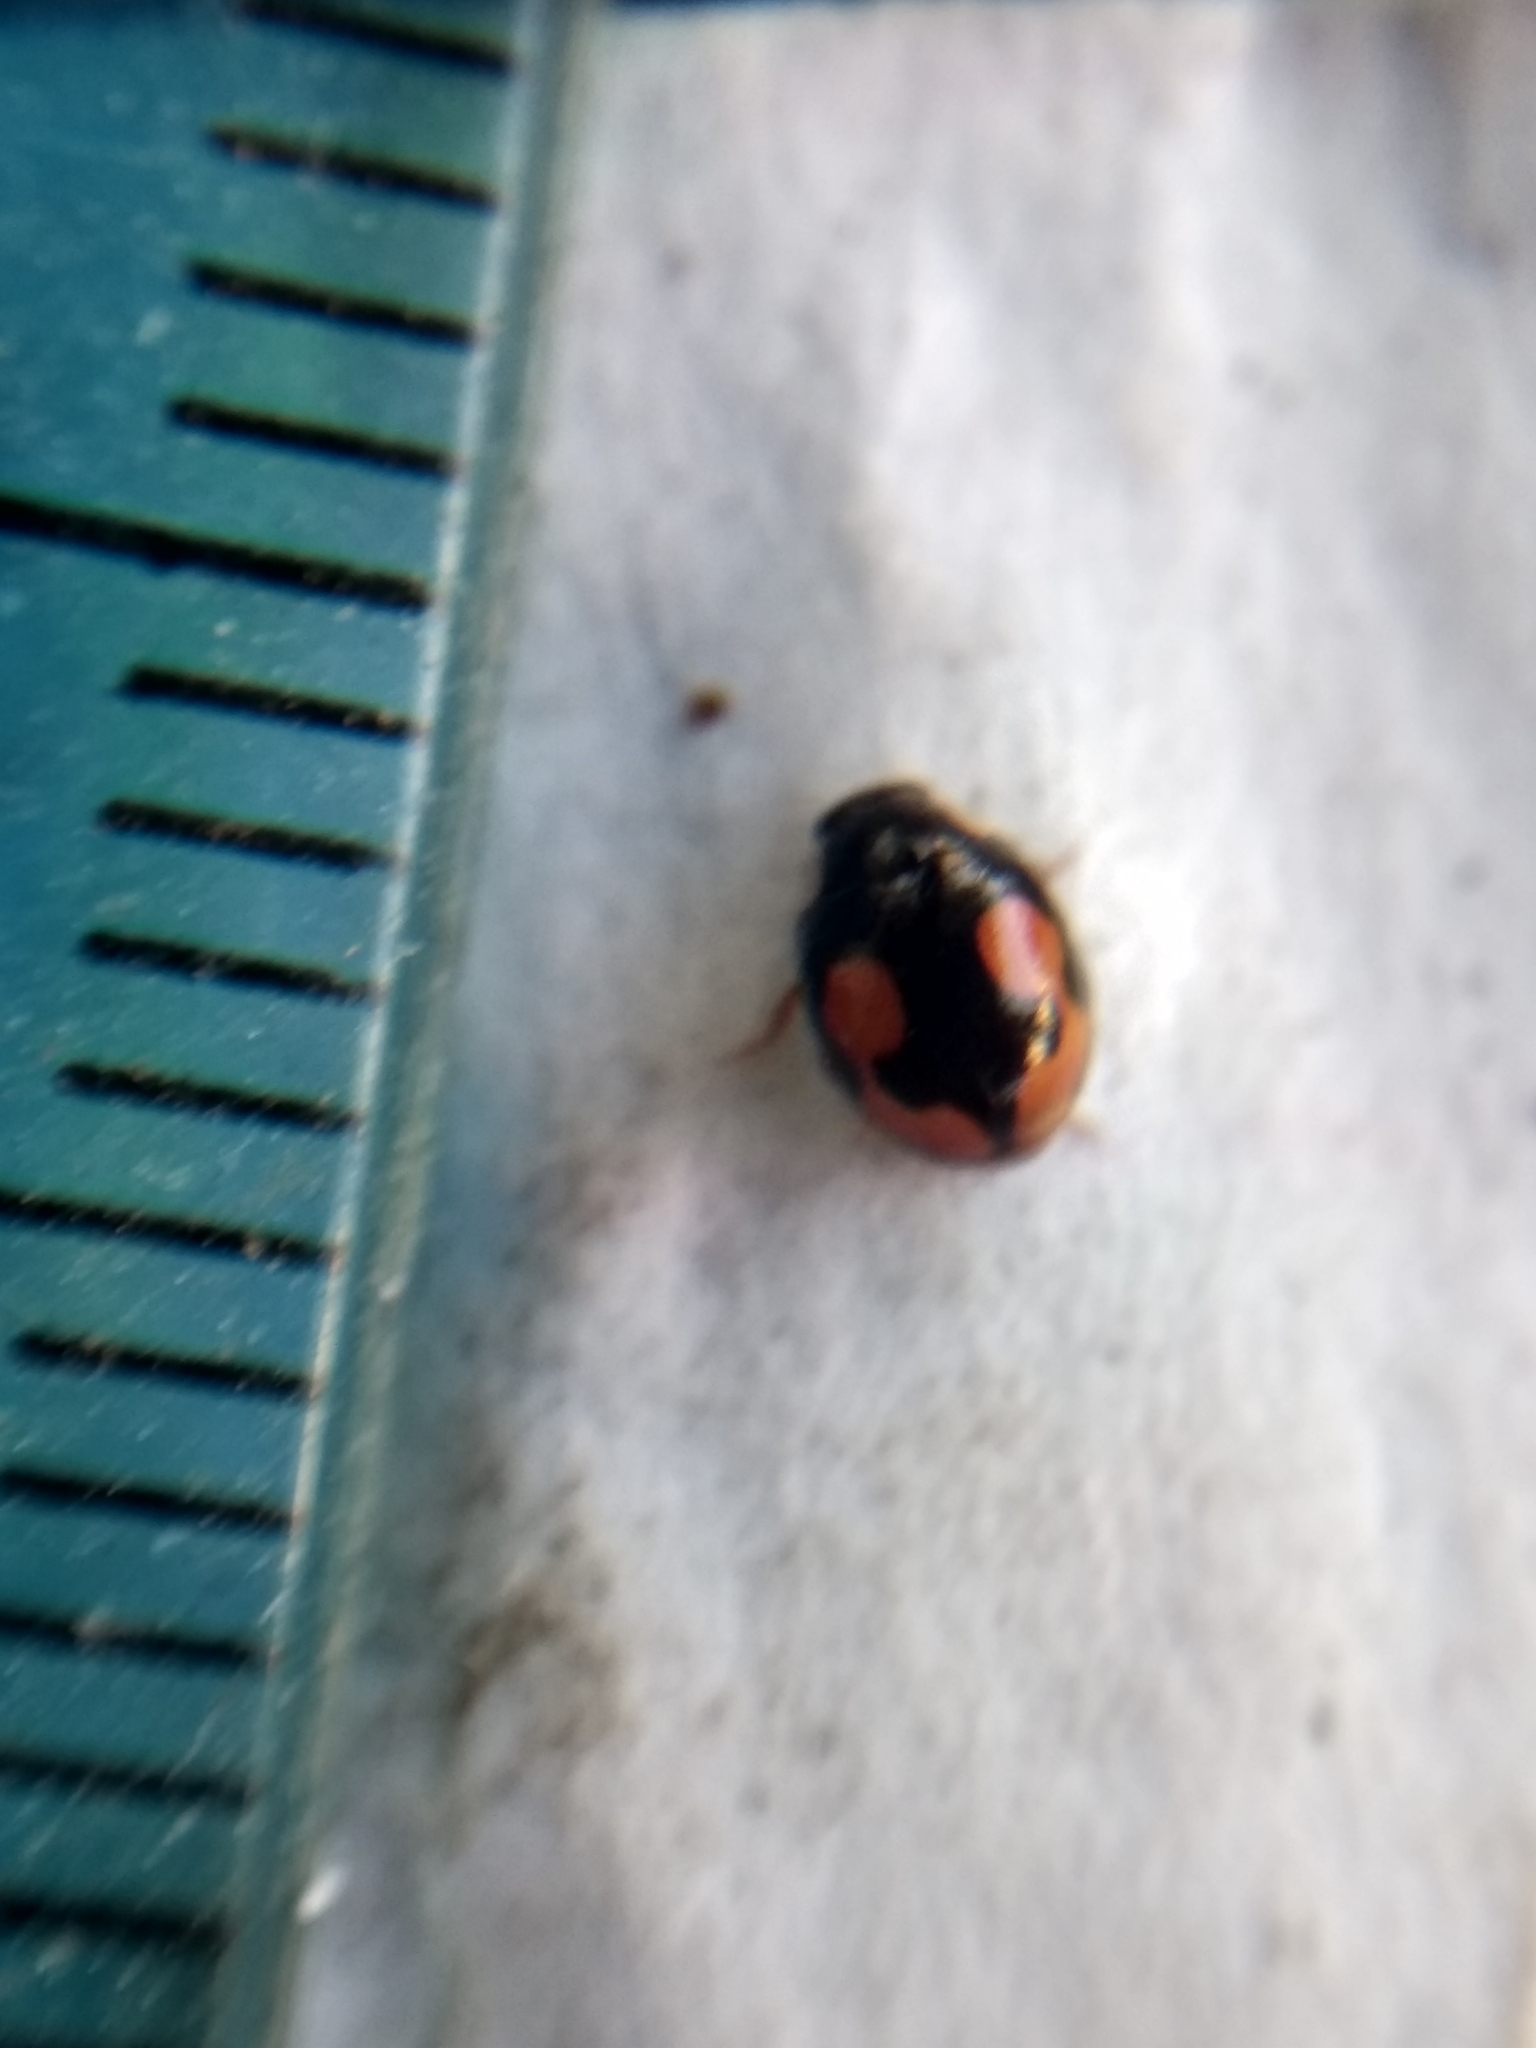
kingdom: Animalia
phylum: Arthropoda
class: Insecta
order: Coleoptera
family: Coccinellidae
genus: Hyperaspis
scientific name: Hyperaspis connectens
